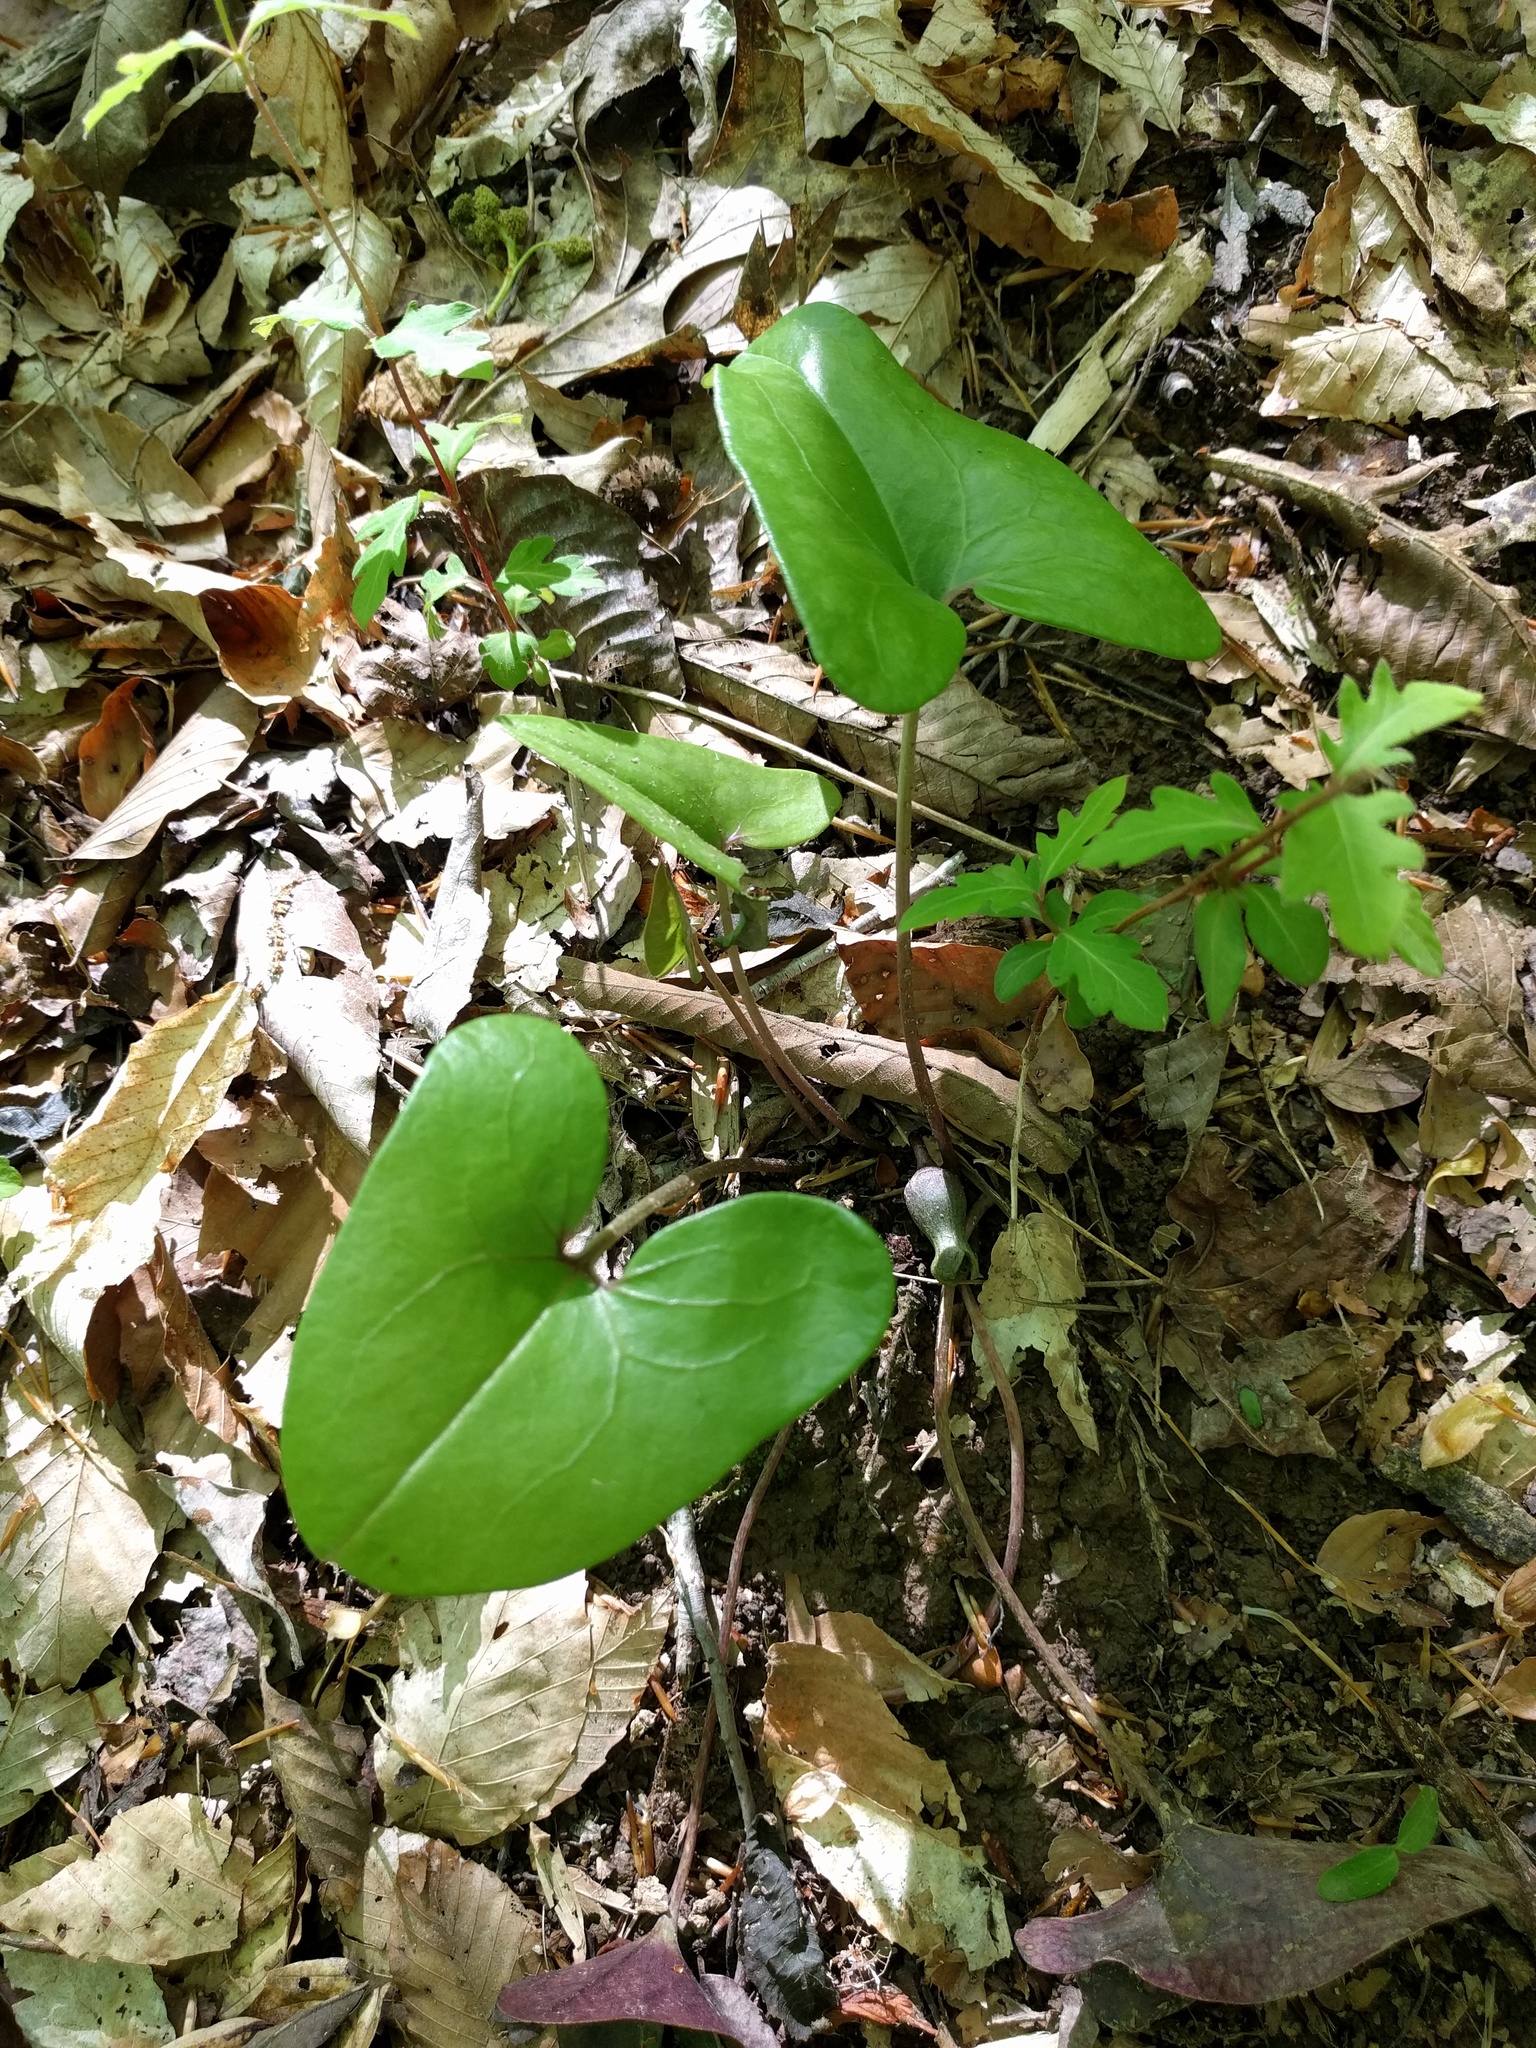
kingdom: Plantae
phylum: Tracheophyta
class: Magnoliopsida
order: Piperales
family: Aristolochiaceae
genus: Hexastylis
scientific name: Hexastylis arifolia
